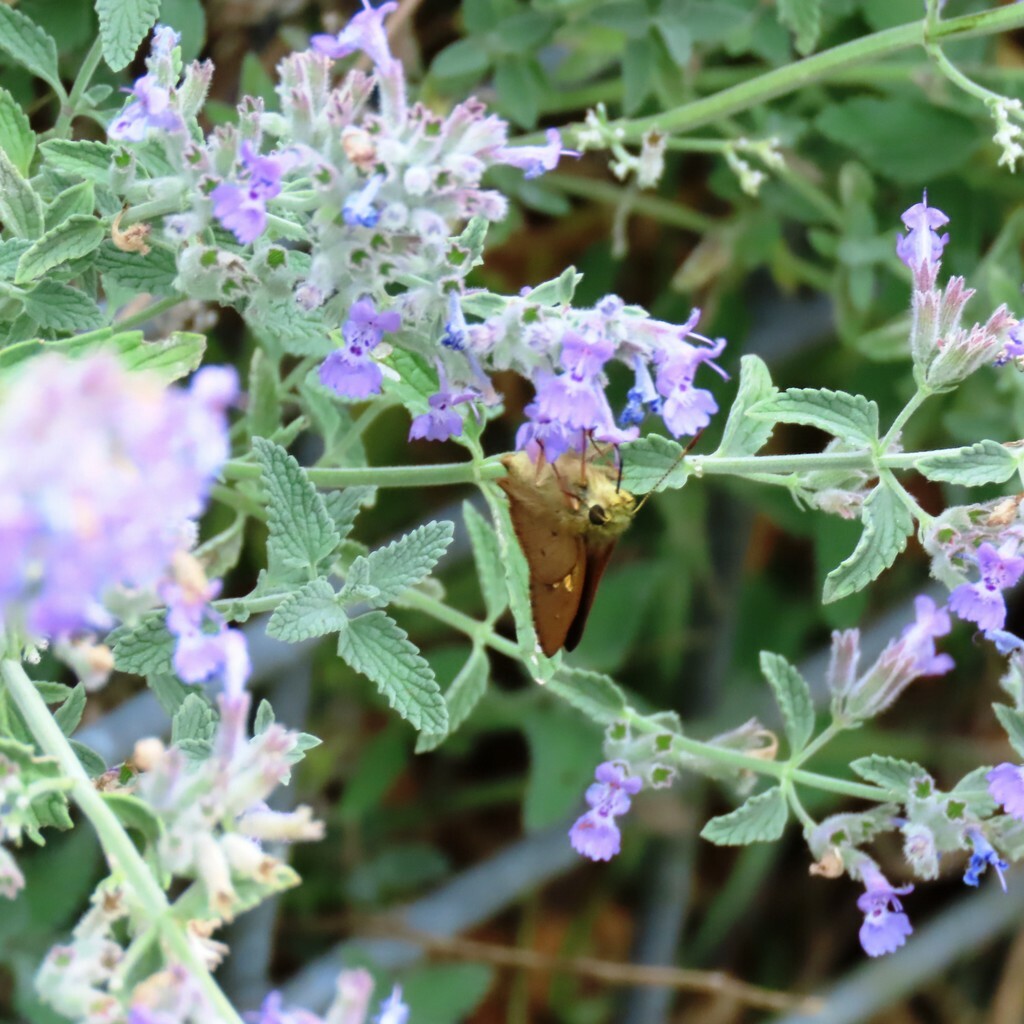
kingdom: Animalia
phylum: Arthropoda
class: Insecta
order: Lepidoptera
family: Hesperiidae
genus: Toxidia
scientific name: Toxidia
